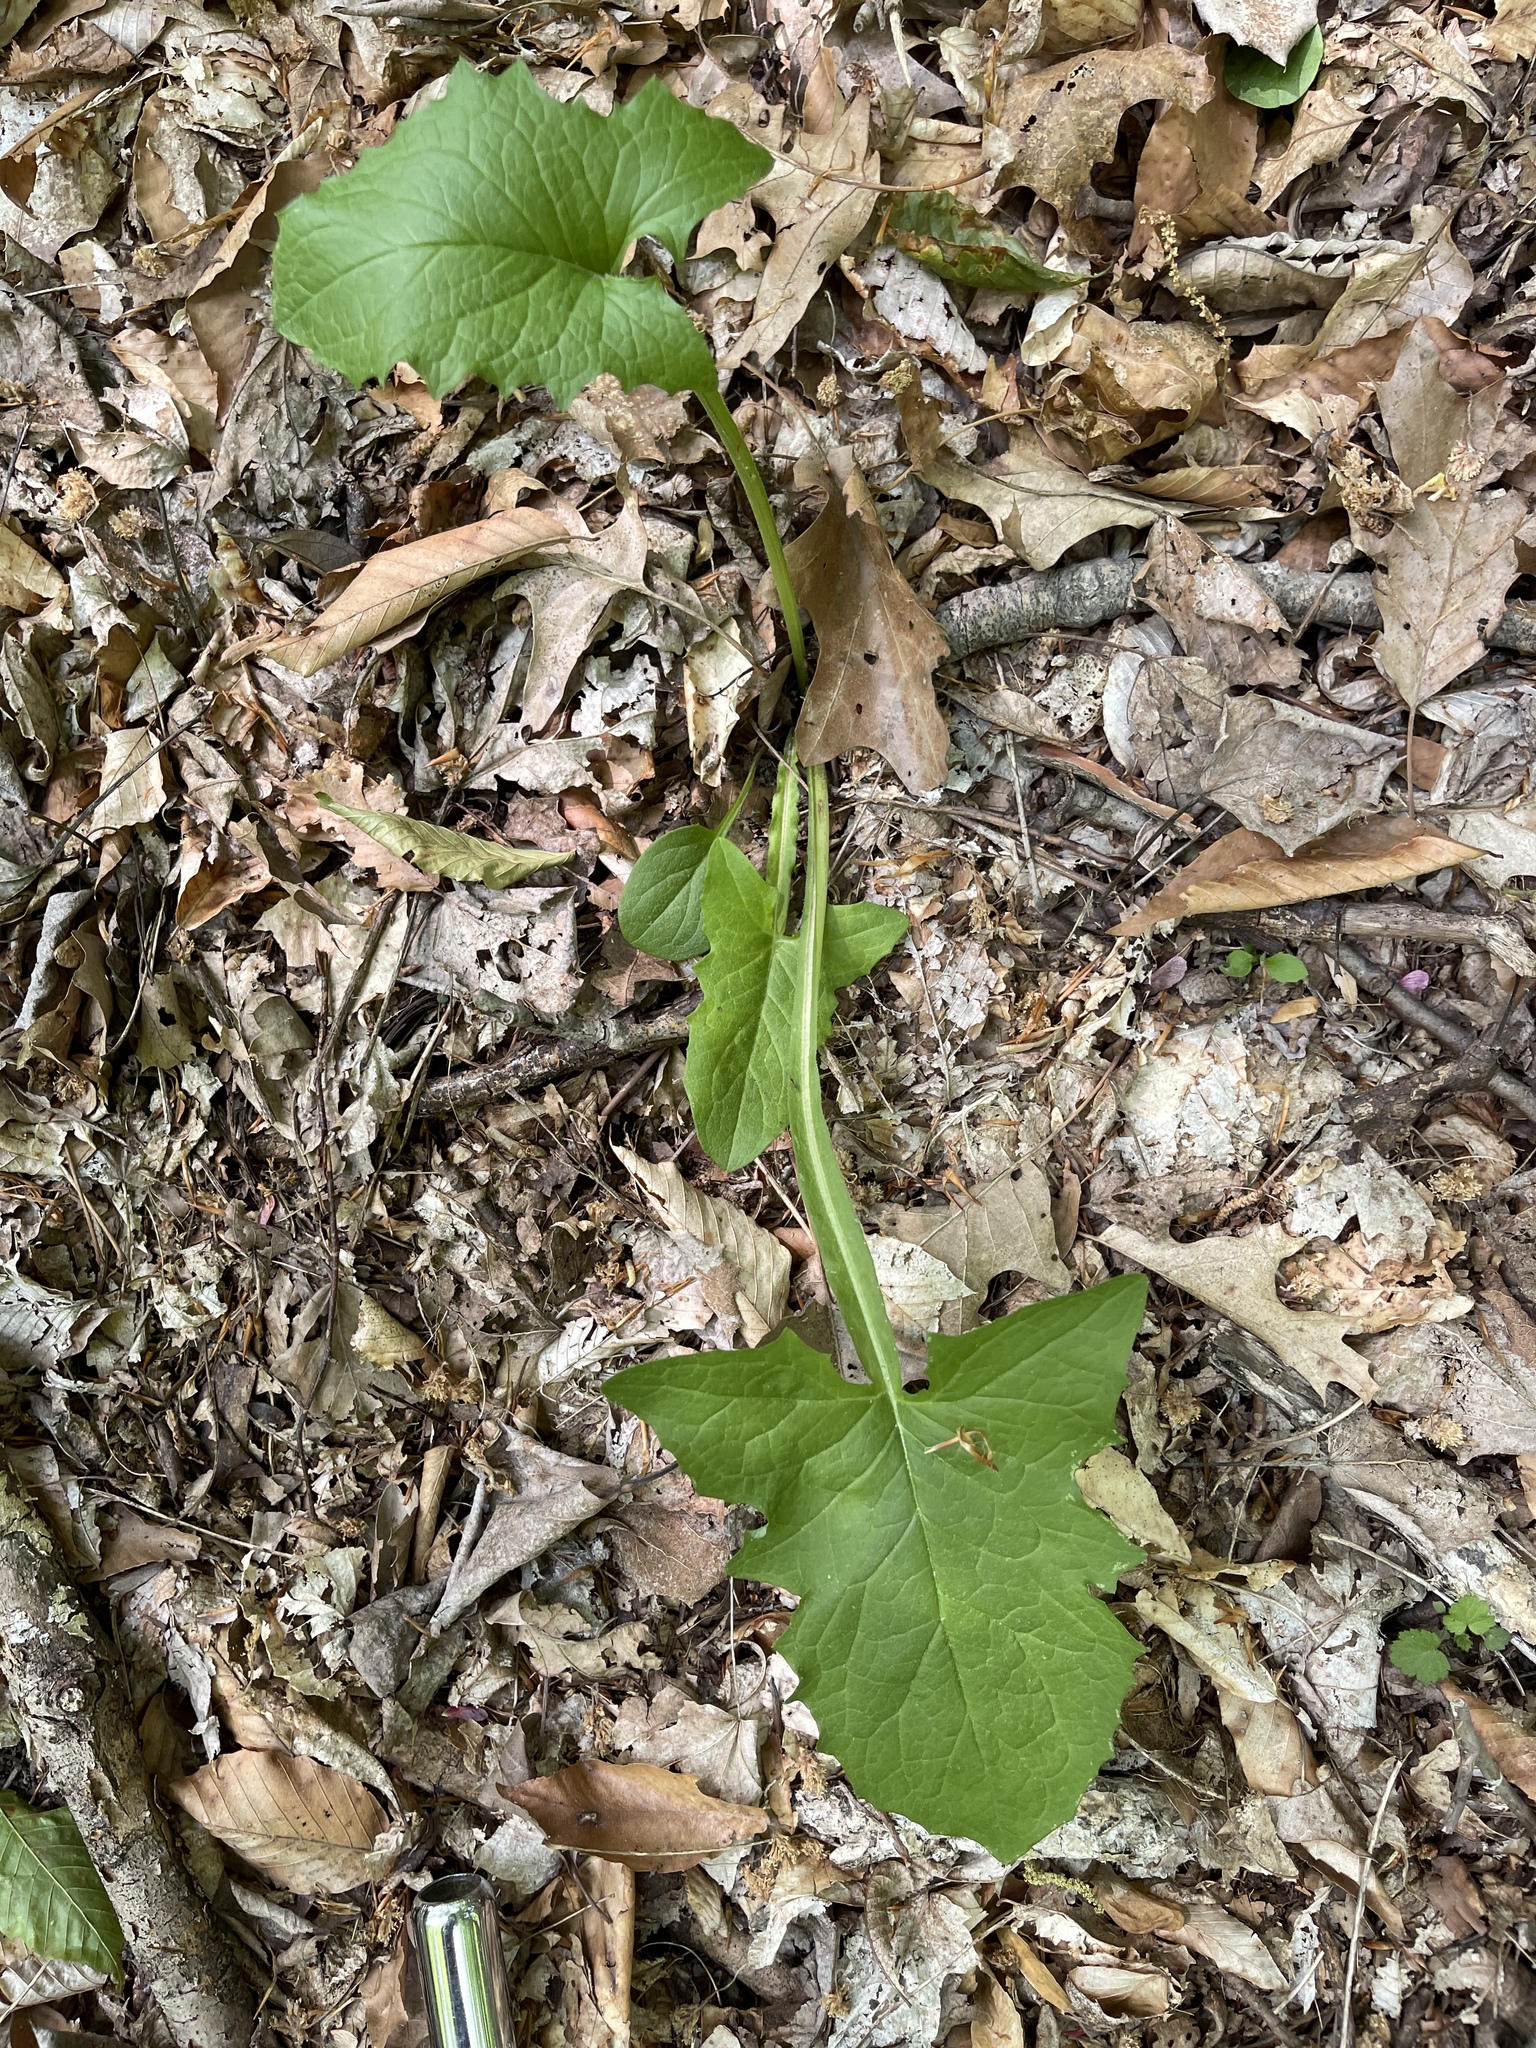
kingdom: Plantae
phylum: Tracheophyta
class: Magnoliopsida
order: Asterales
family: Asteraceae
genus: Nabalus
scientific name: Nabalus crepidineus
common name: Nodding rattlesnakeroot
